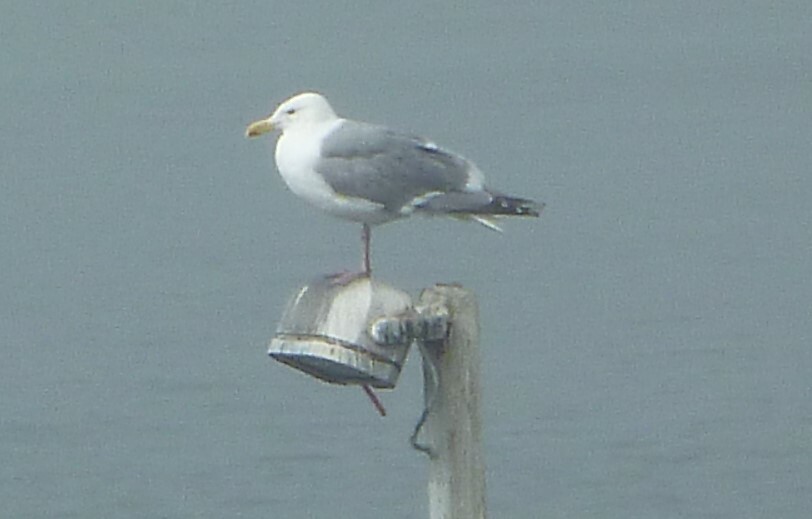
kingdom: Animalia
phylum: Chordata
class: Aves
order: Charadriiformes
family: Laridae
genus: Larus
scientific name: Larus
